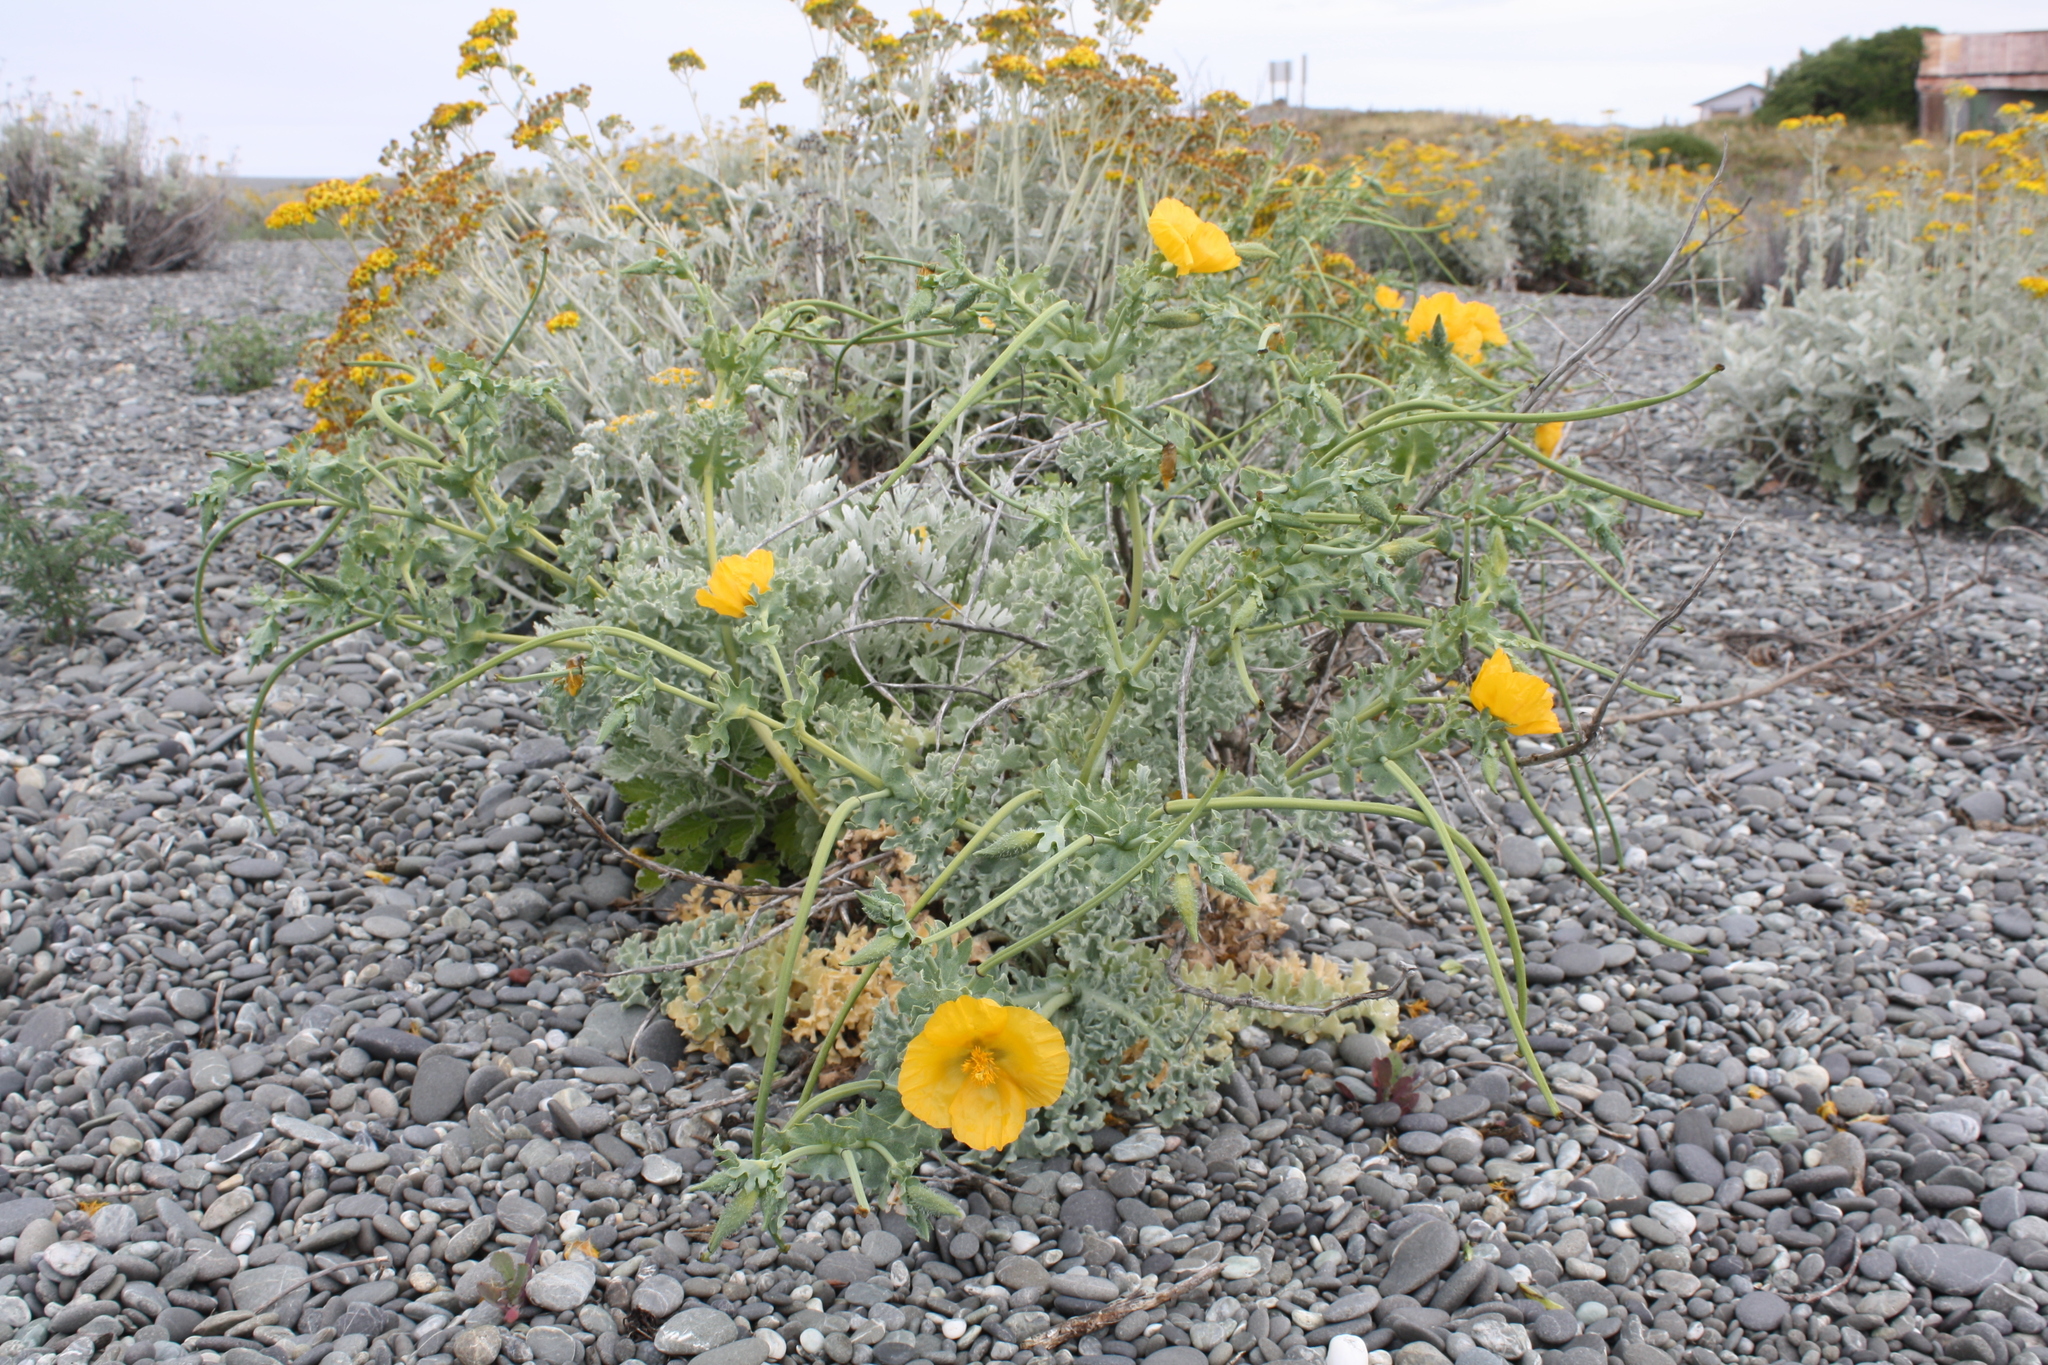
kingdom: Plantae
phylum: Tracheophyta
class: Magnoliopsida
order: Ranunculales
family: Papaveraceae
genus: Glaucium
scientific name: Glaucium flavum
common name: Yellow horned-poppy
